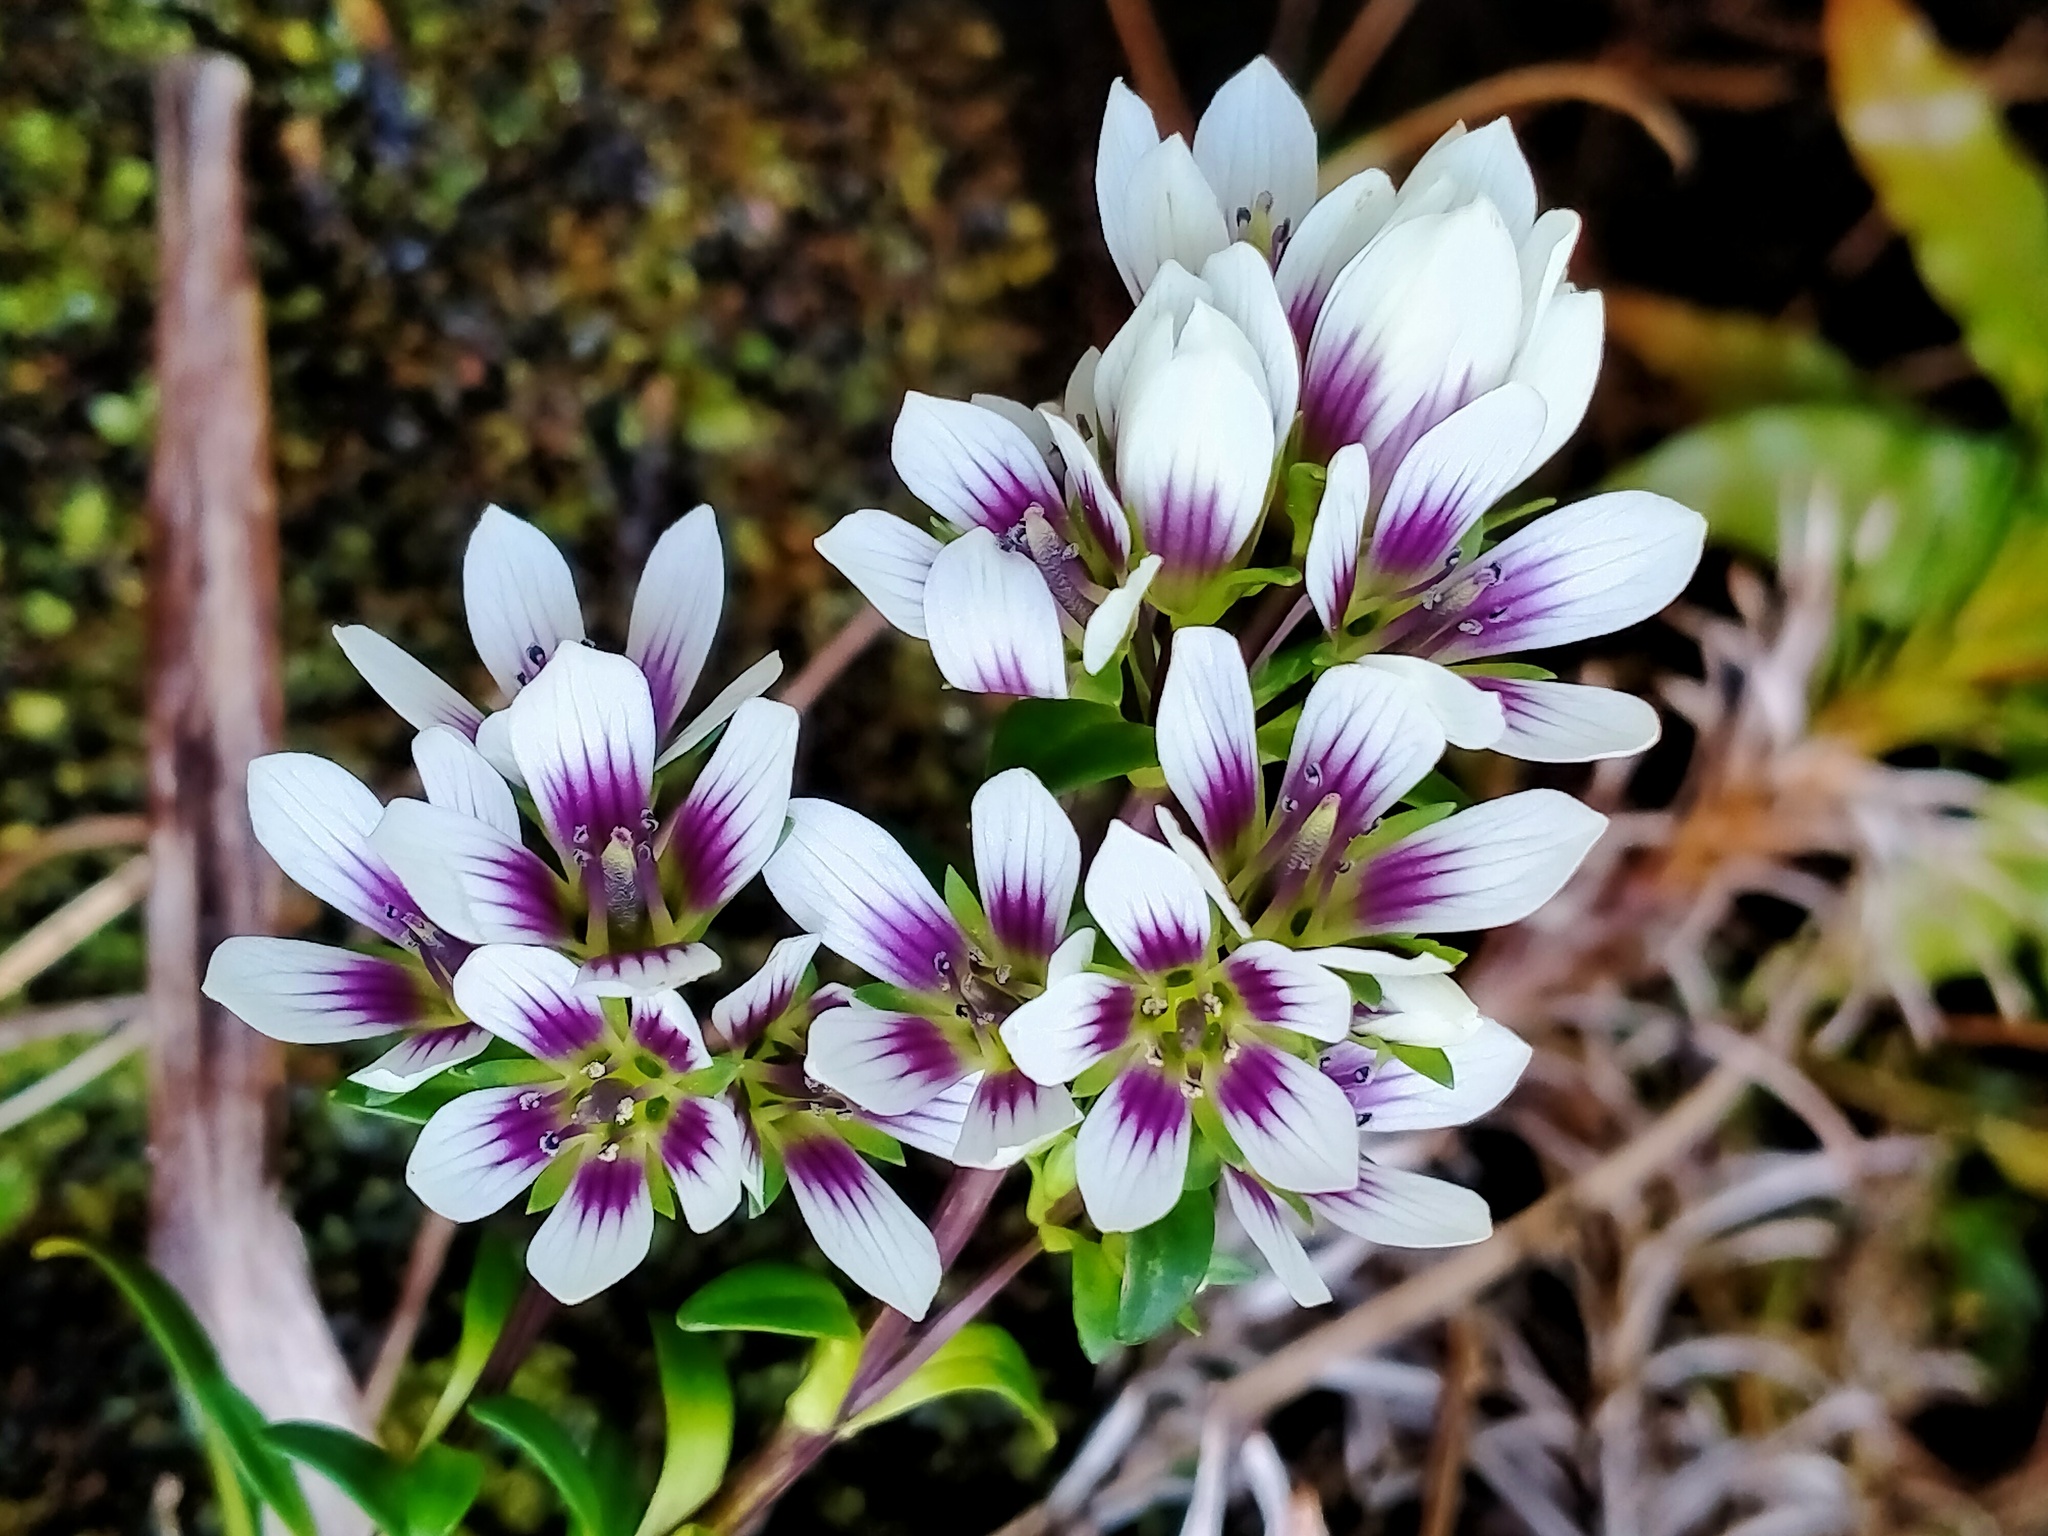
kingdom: Plantae
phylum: Tracheophyta
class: Magnoliopsida
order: Gentianales
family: Gentianaceae
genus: Gentianella
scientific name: Gentianella concinna
